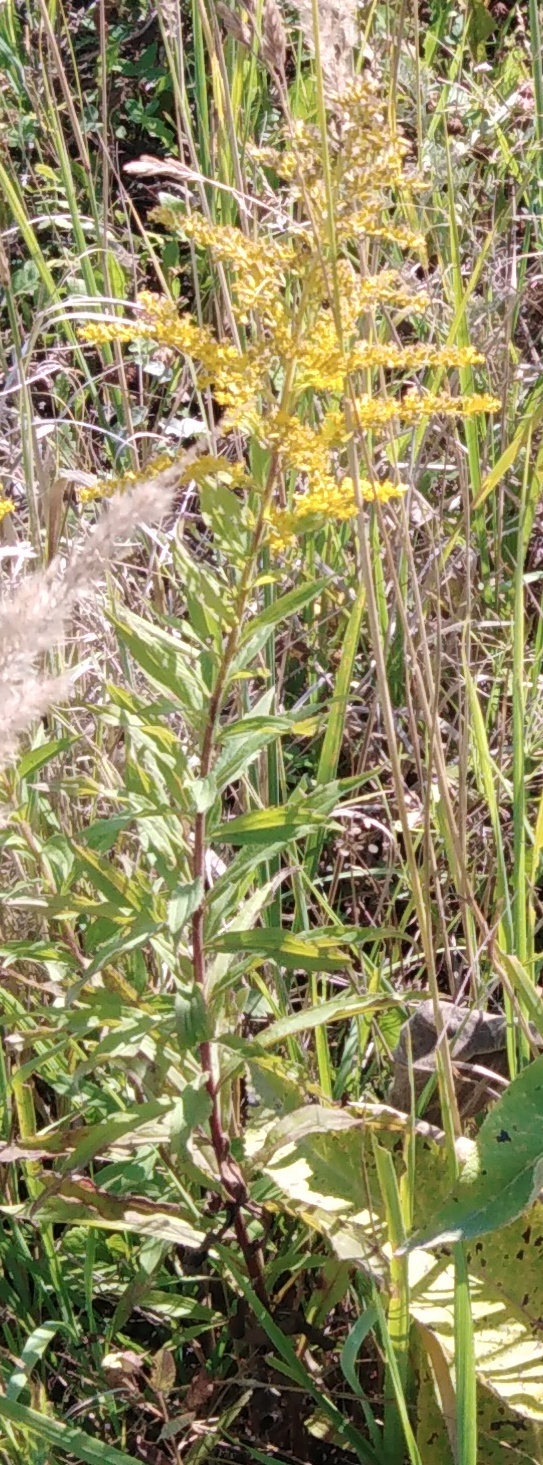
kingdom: Plantae
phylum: Tracheophyta
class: Magnoliopsida
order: Asterales
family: Asteraceae
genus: Solidago
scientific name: Solidago canadensis
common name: Canada goldenrod
